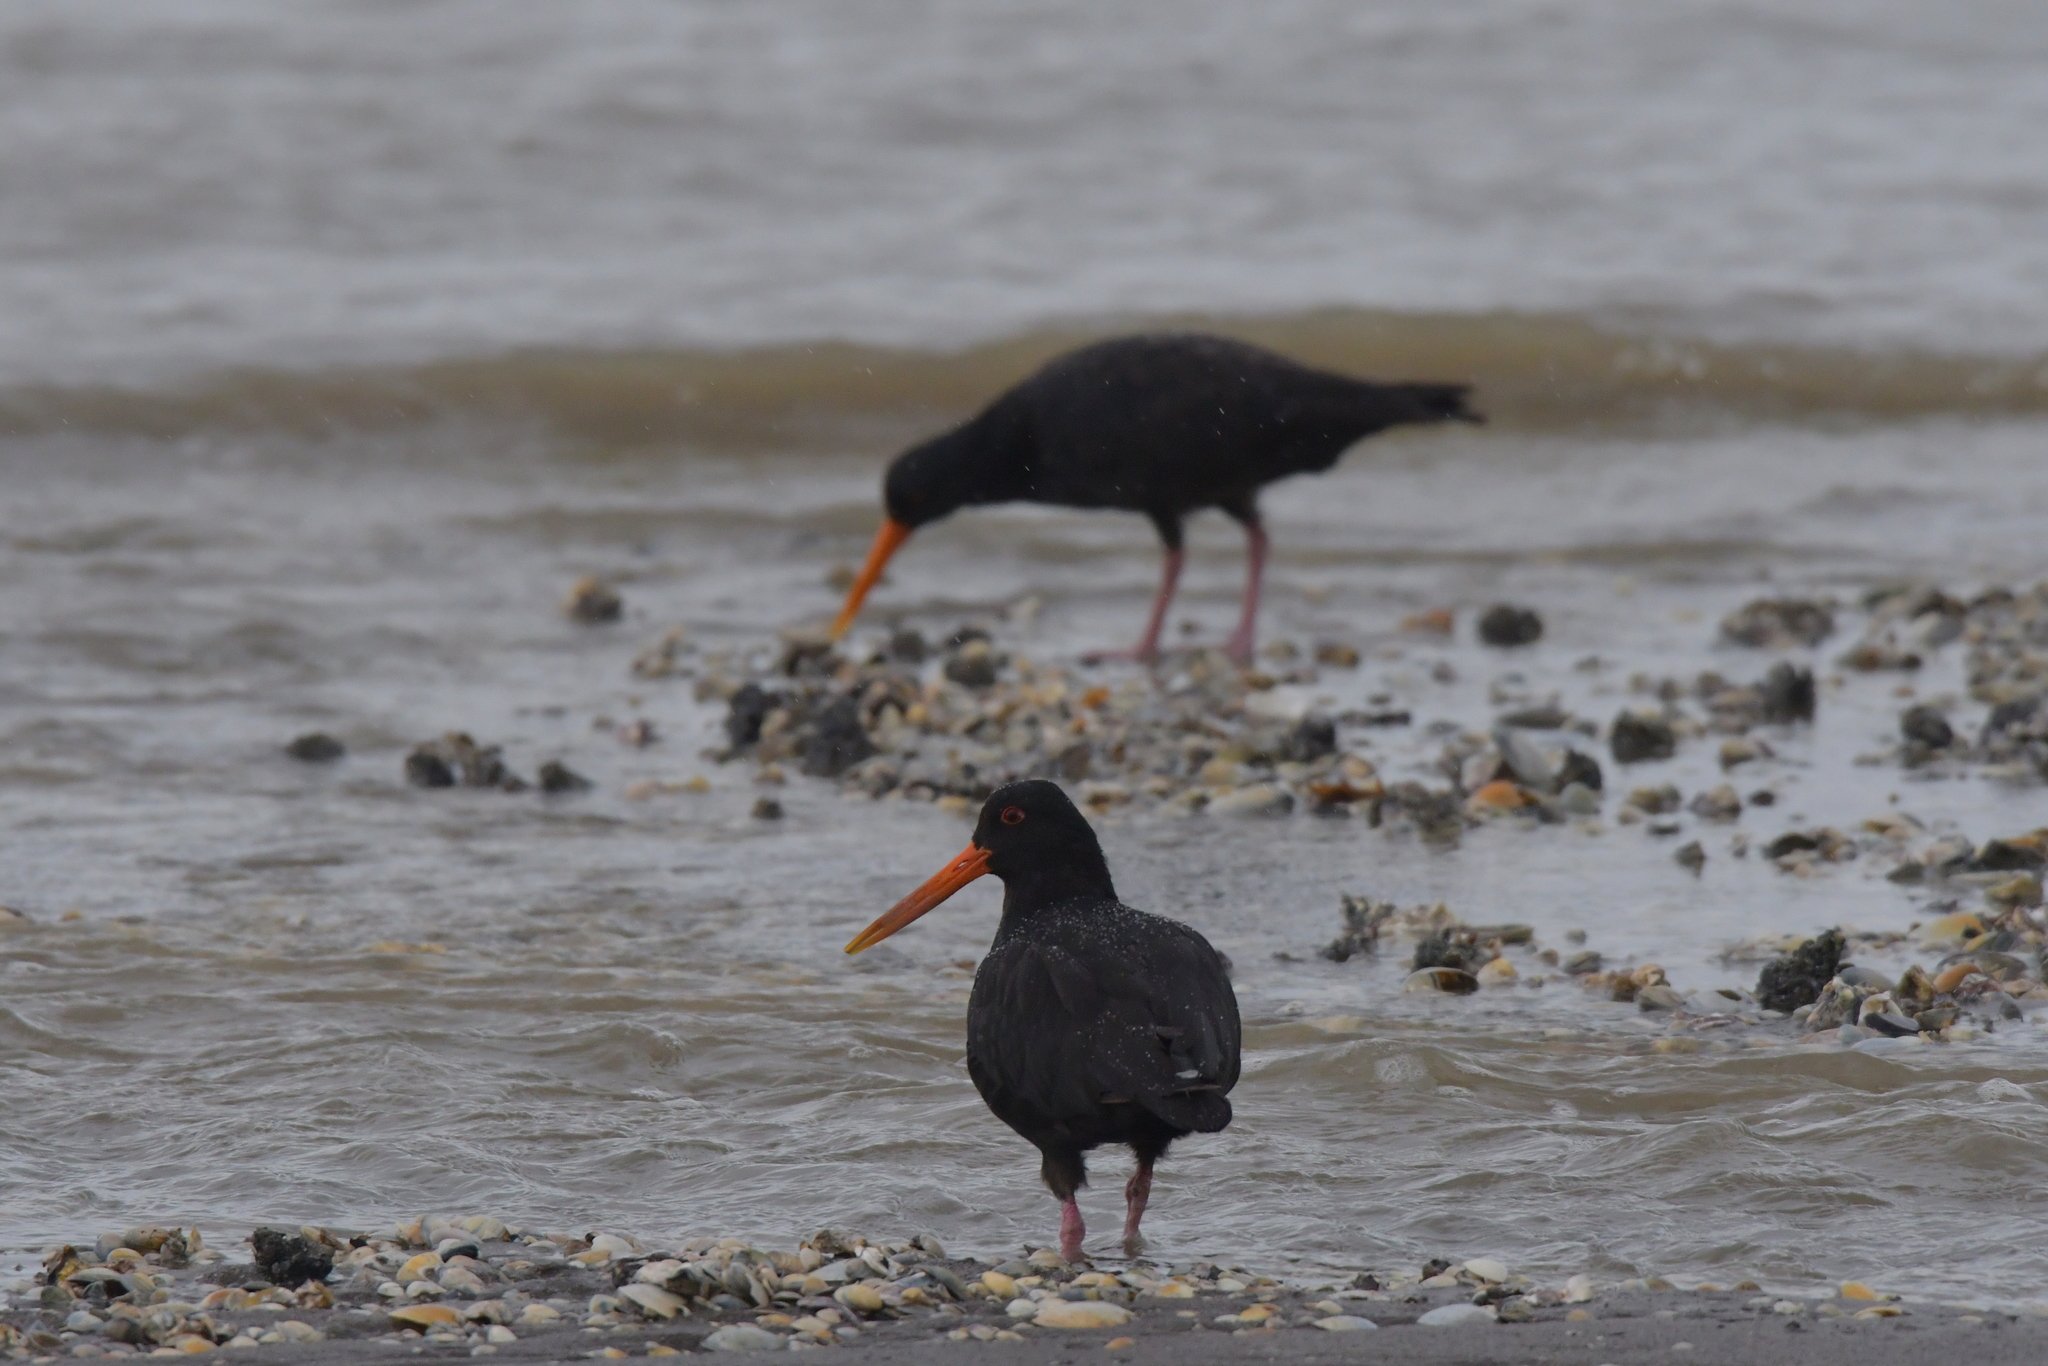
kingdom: Animalia
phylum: Chordata
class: Aves
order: Charadriiformes
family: Haematopodidae
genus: Haematopus
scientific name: Haematopus unicolor
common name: Variable oystercatcher
